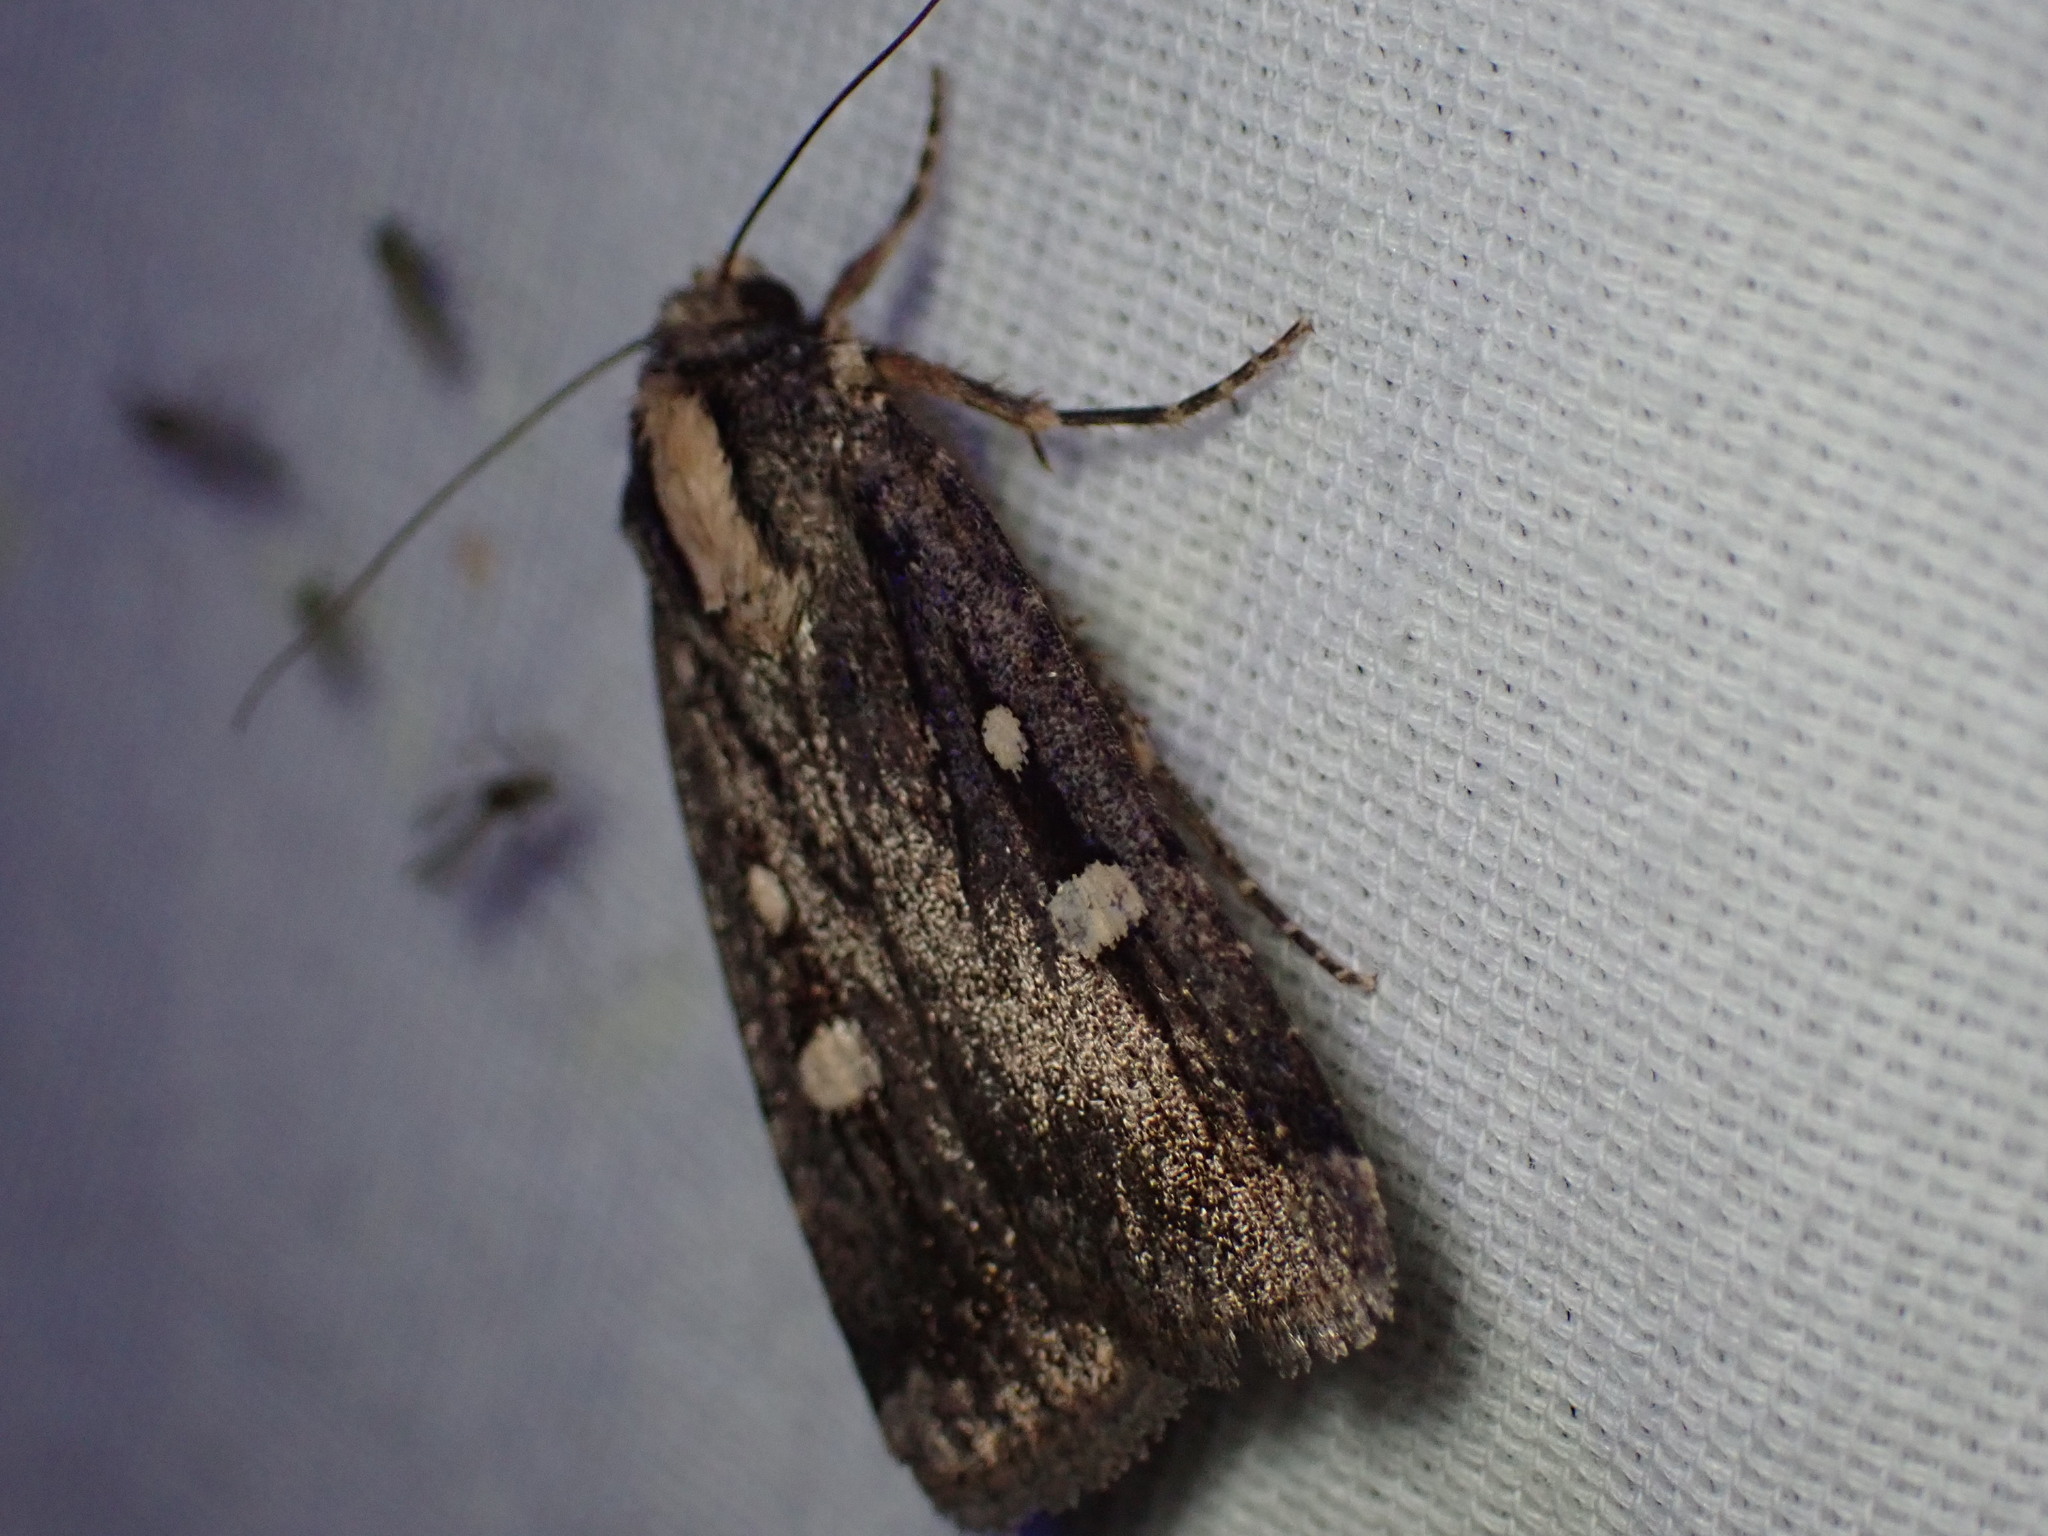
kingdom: Animalia
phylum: Arthropoda
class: Insecta
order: Lepidoptera
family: Noctuidae
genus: Abagrotis
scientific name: Abagrotis glenni
